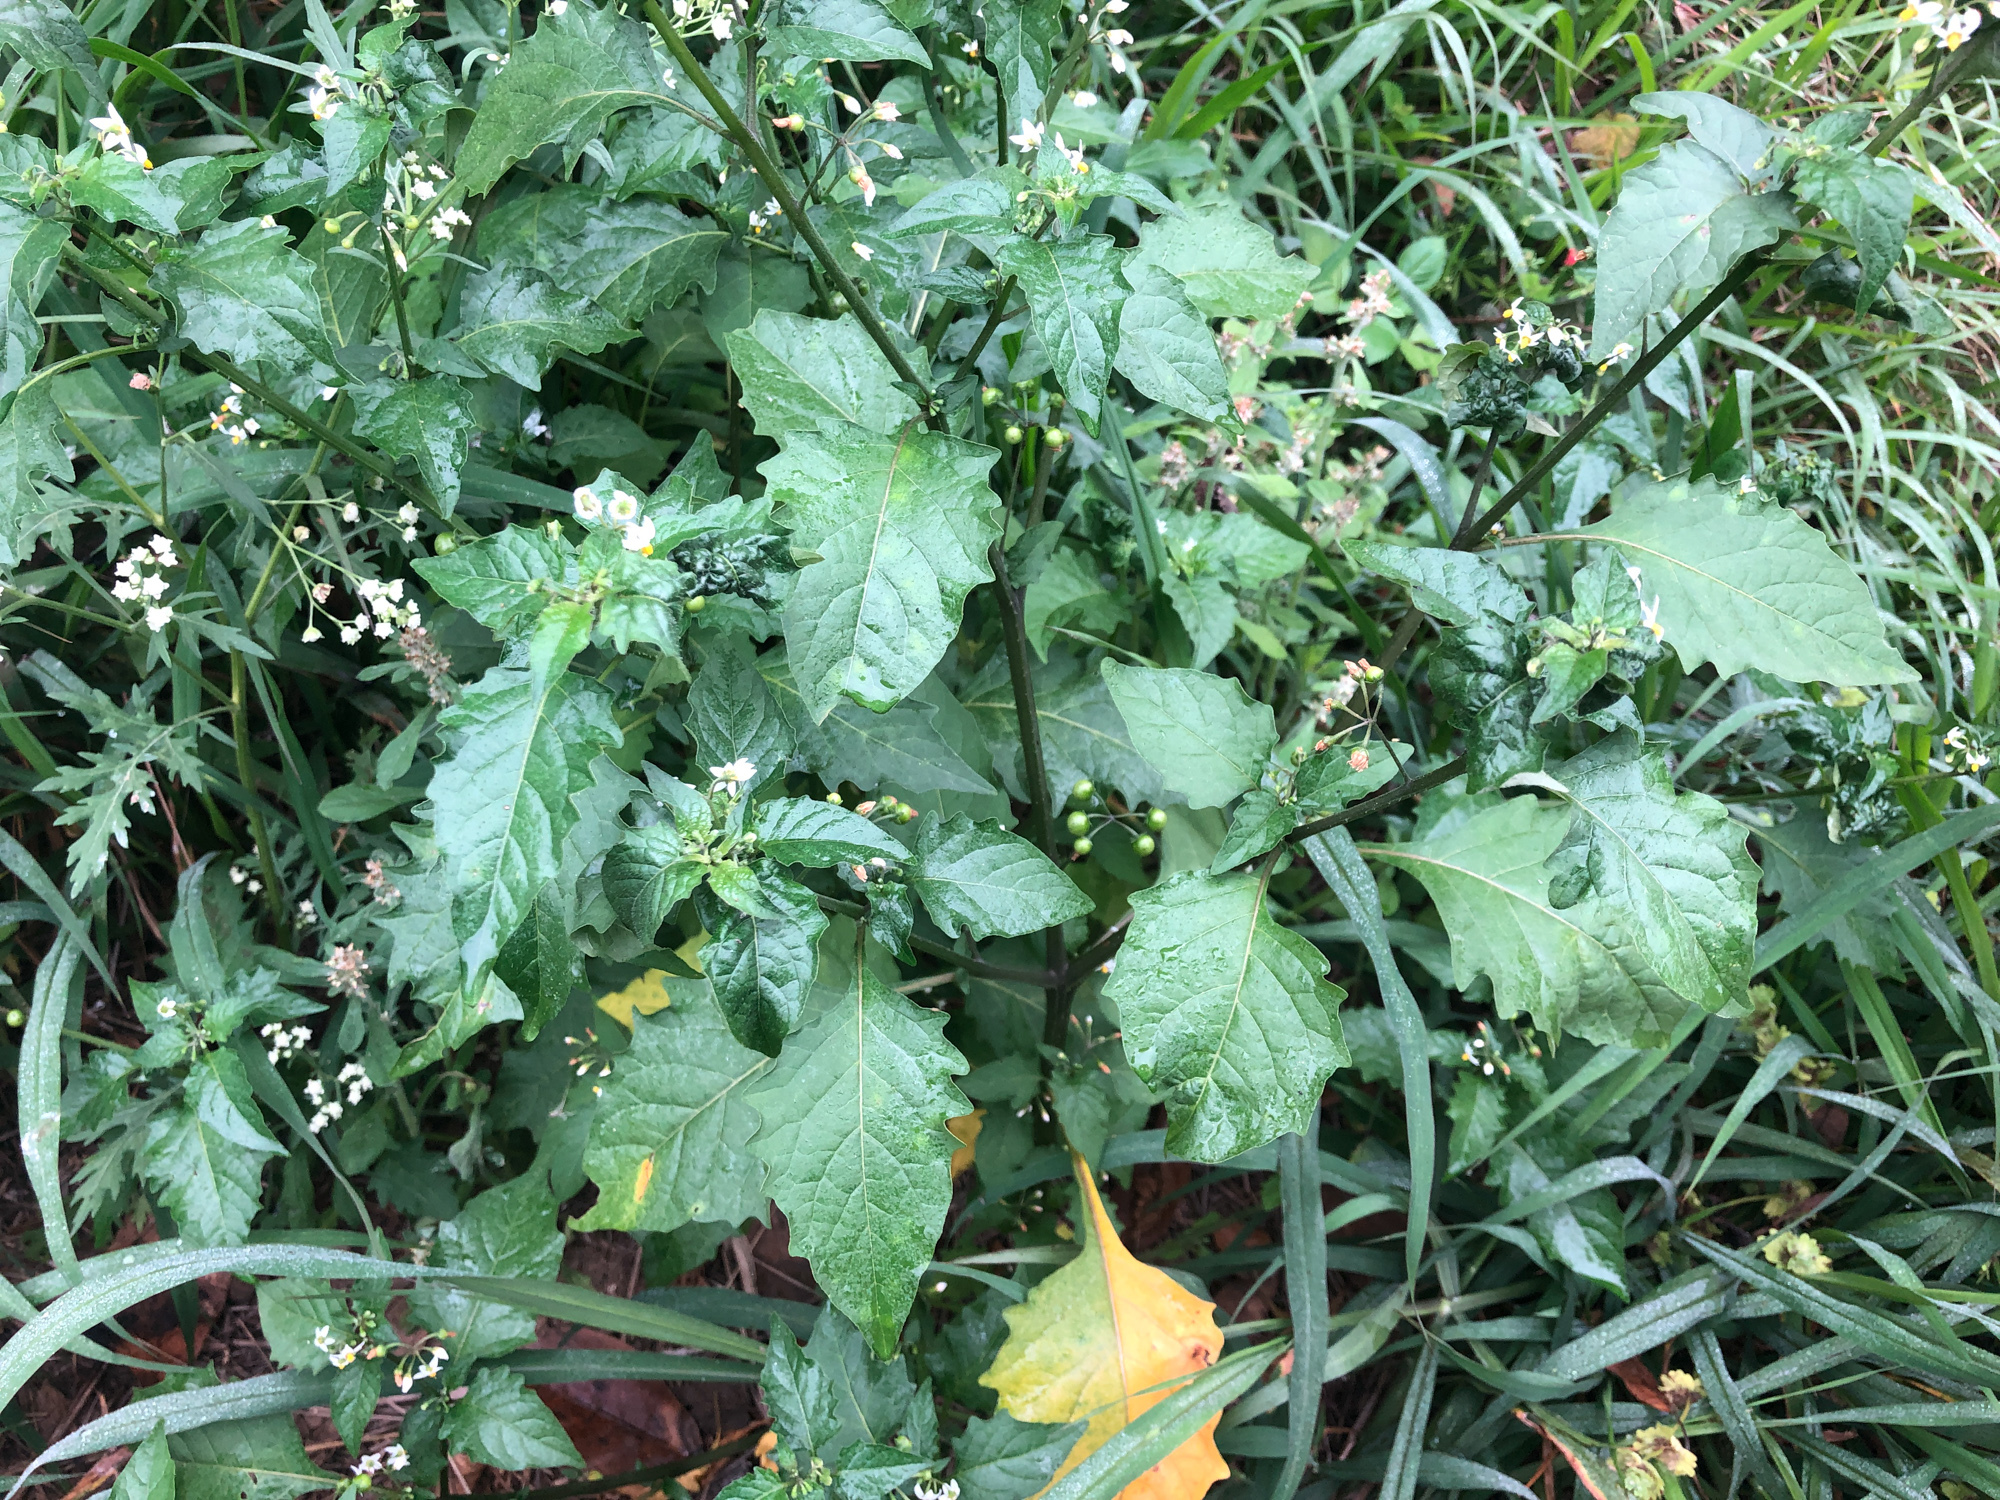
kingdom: Plantae
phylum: Tracheophyta
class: Magnoliopsida
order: Solanales
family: Solanaceae
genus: Solanum
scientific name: Solanum nigrum
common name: Black nightshade
